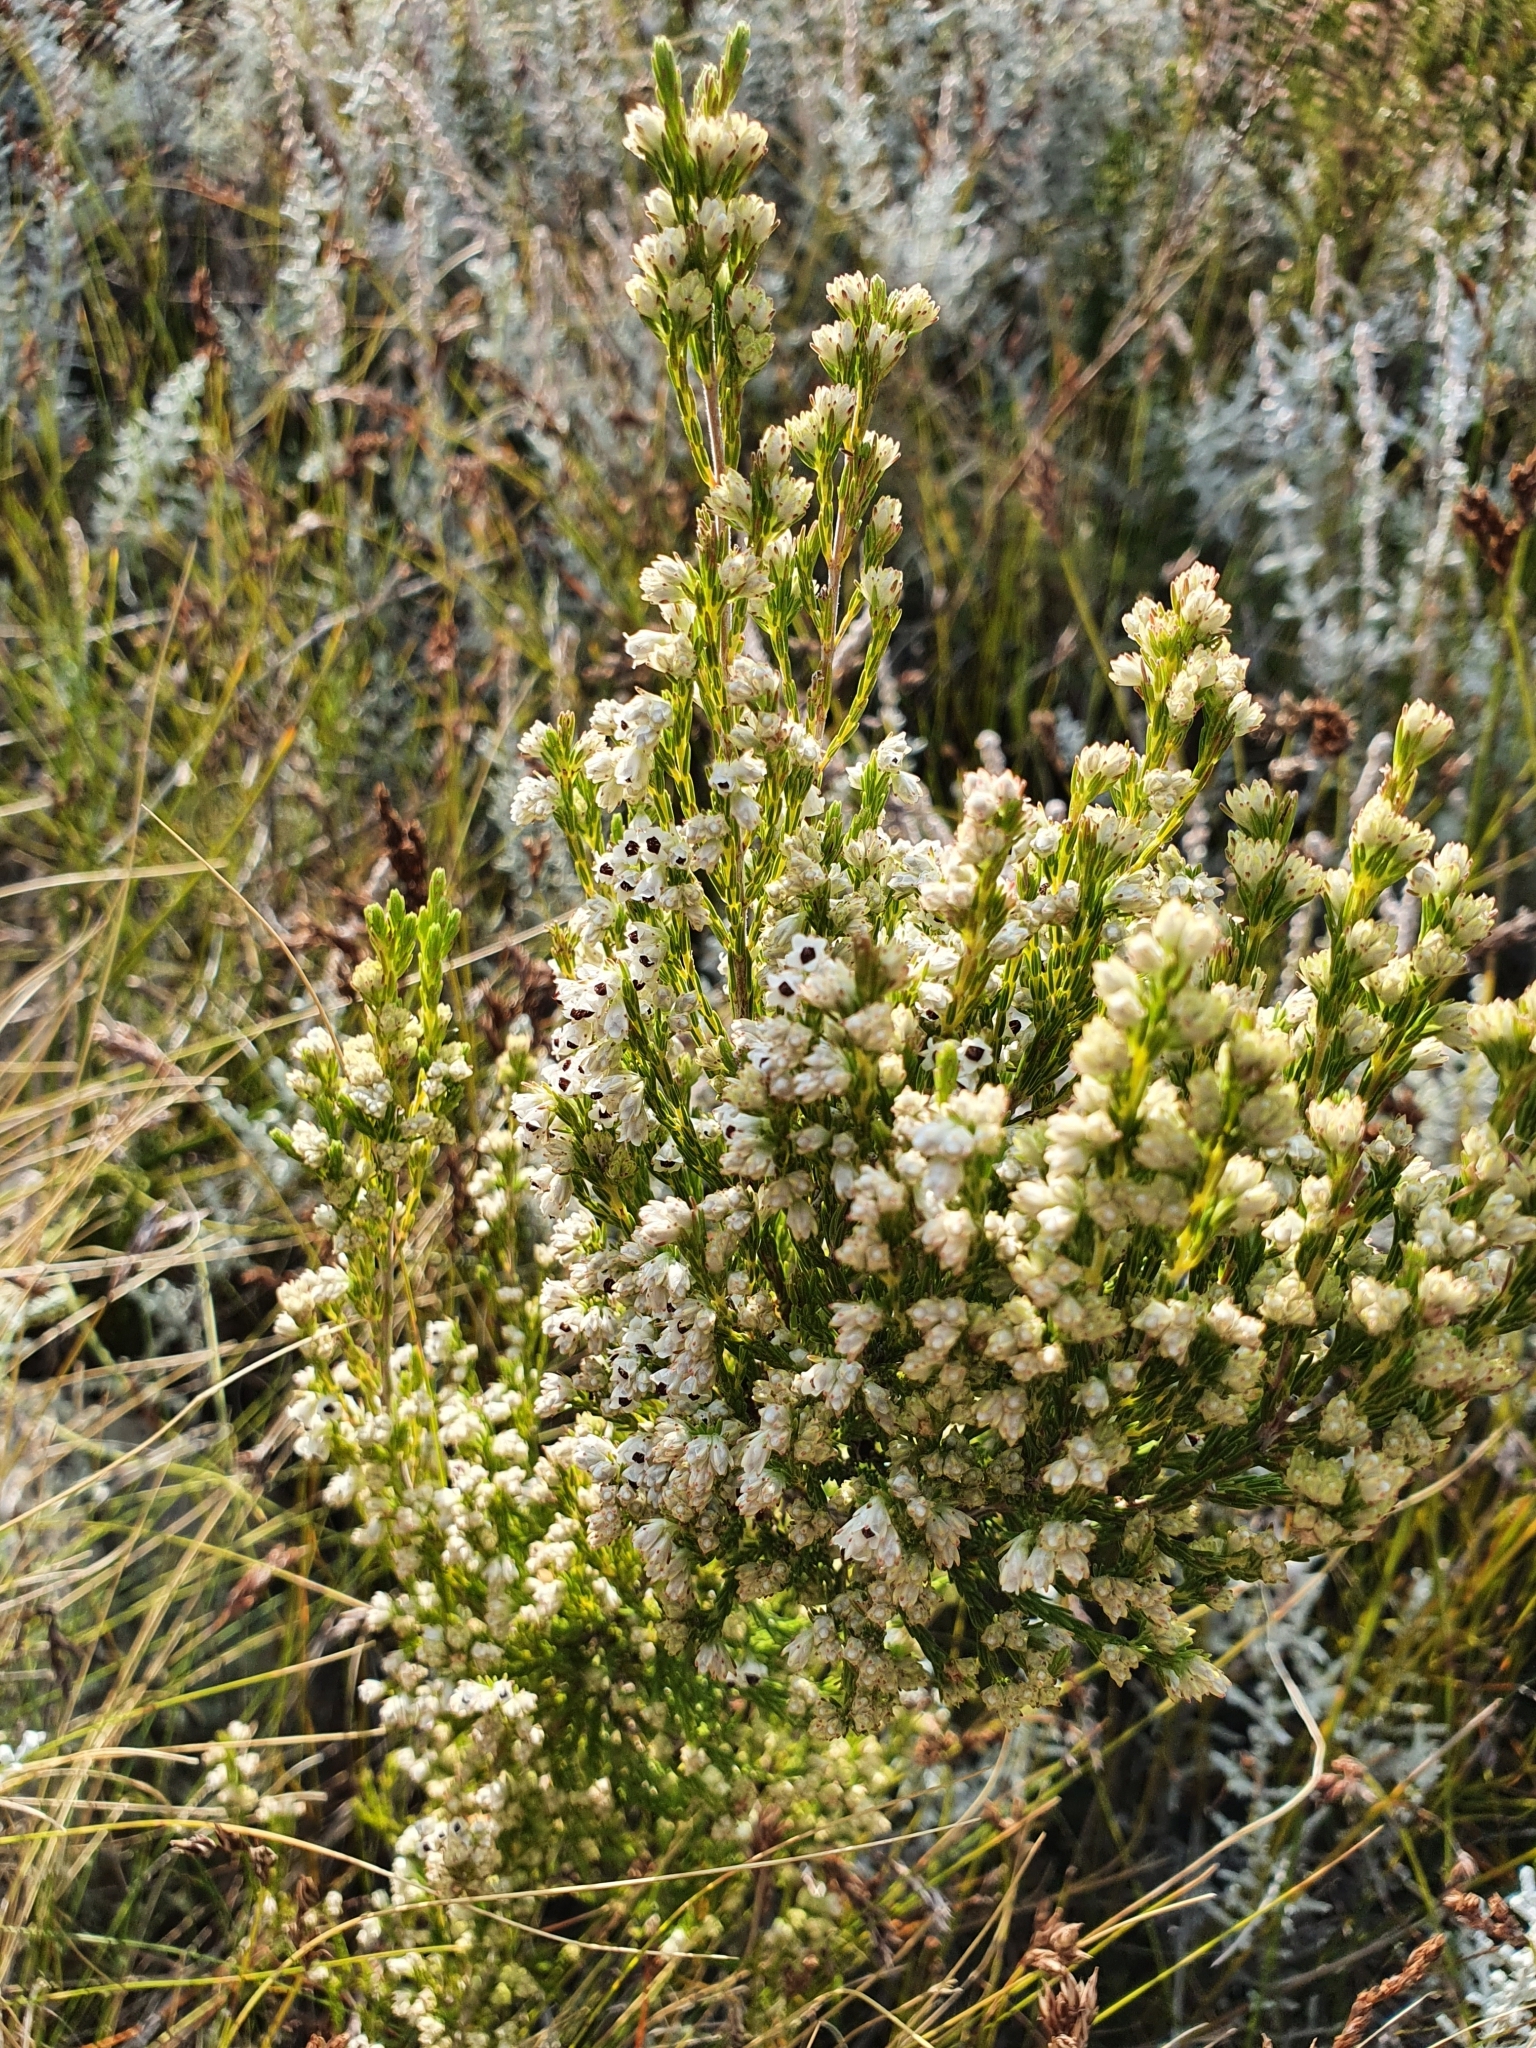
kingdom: Plantae
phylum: Tracheophyta
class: Magnoliopsida
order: Ericales
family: Ericaceae
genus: Erica
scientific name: Erica calycina
